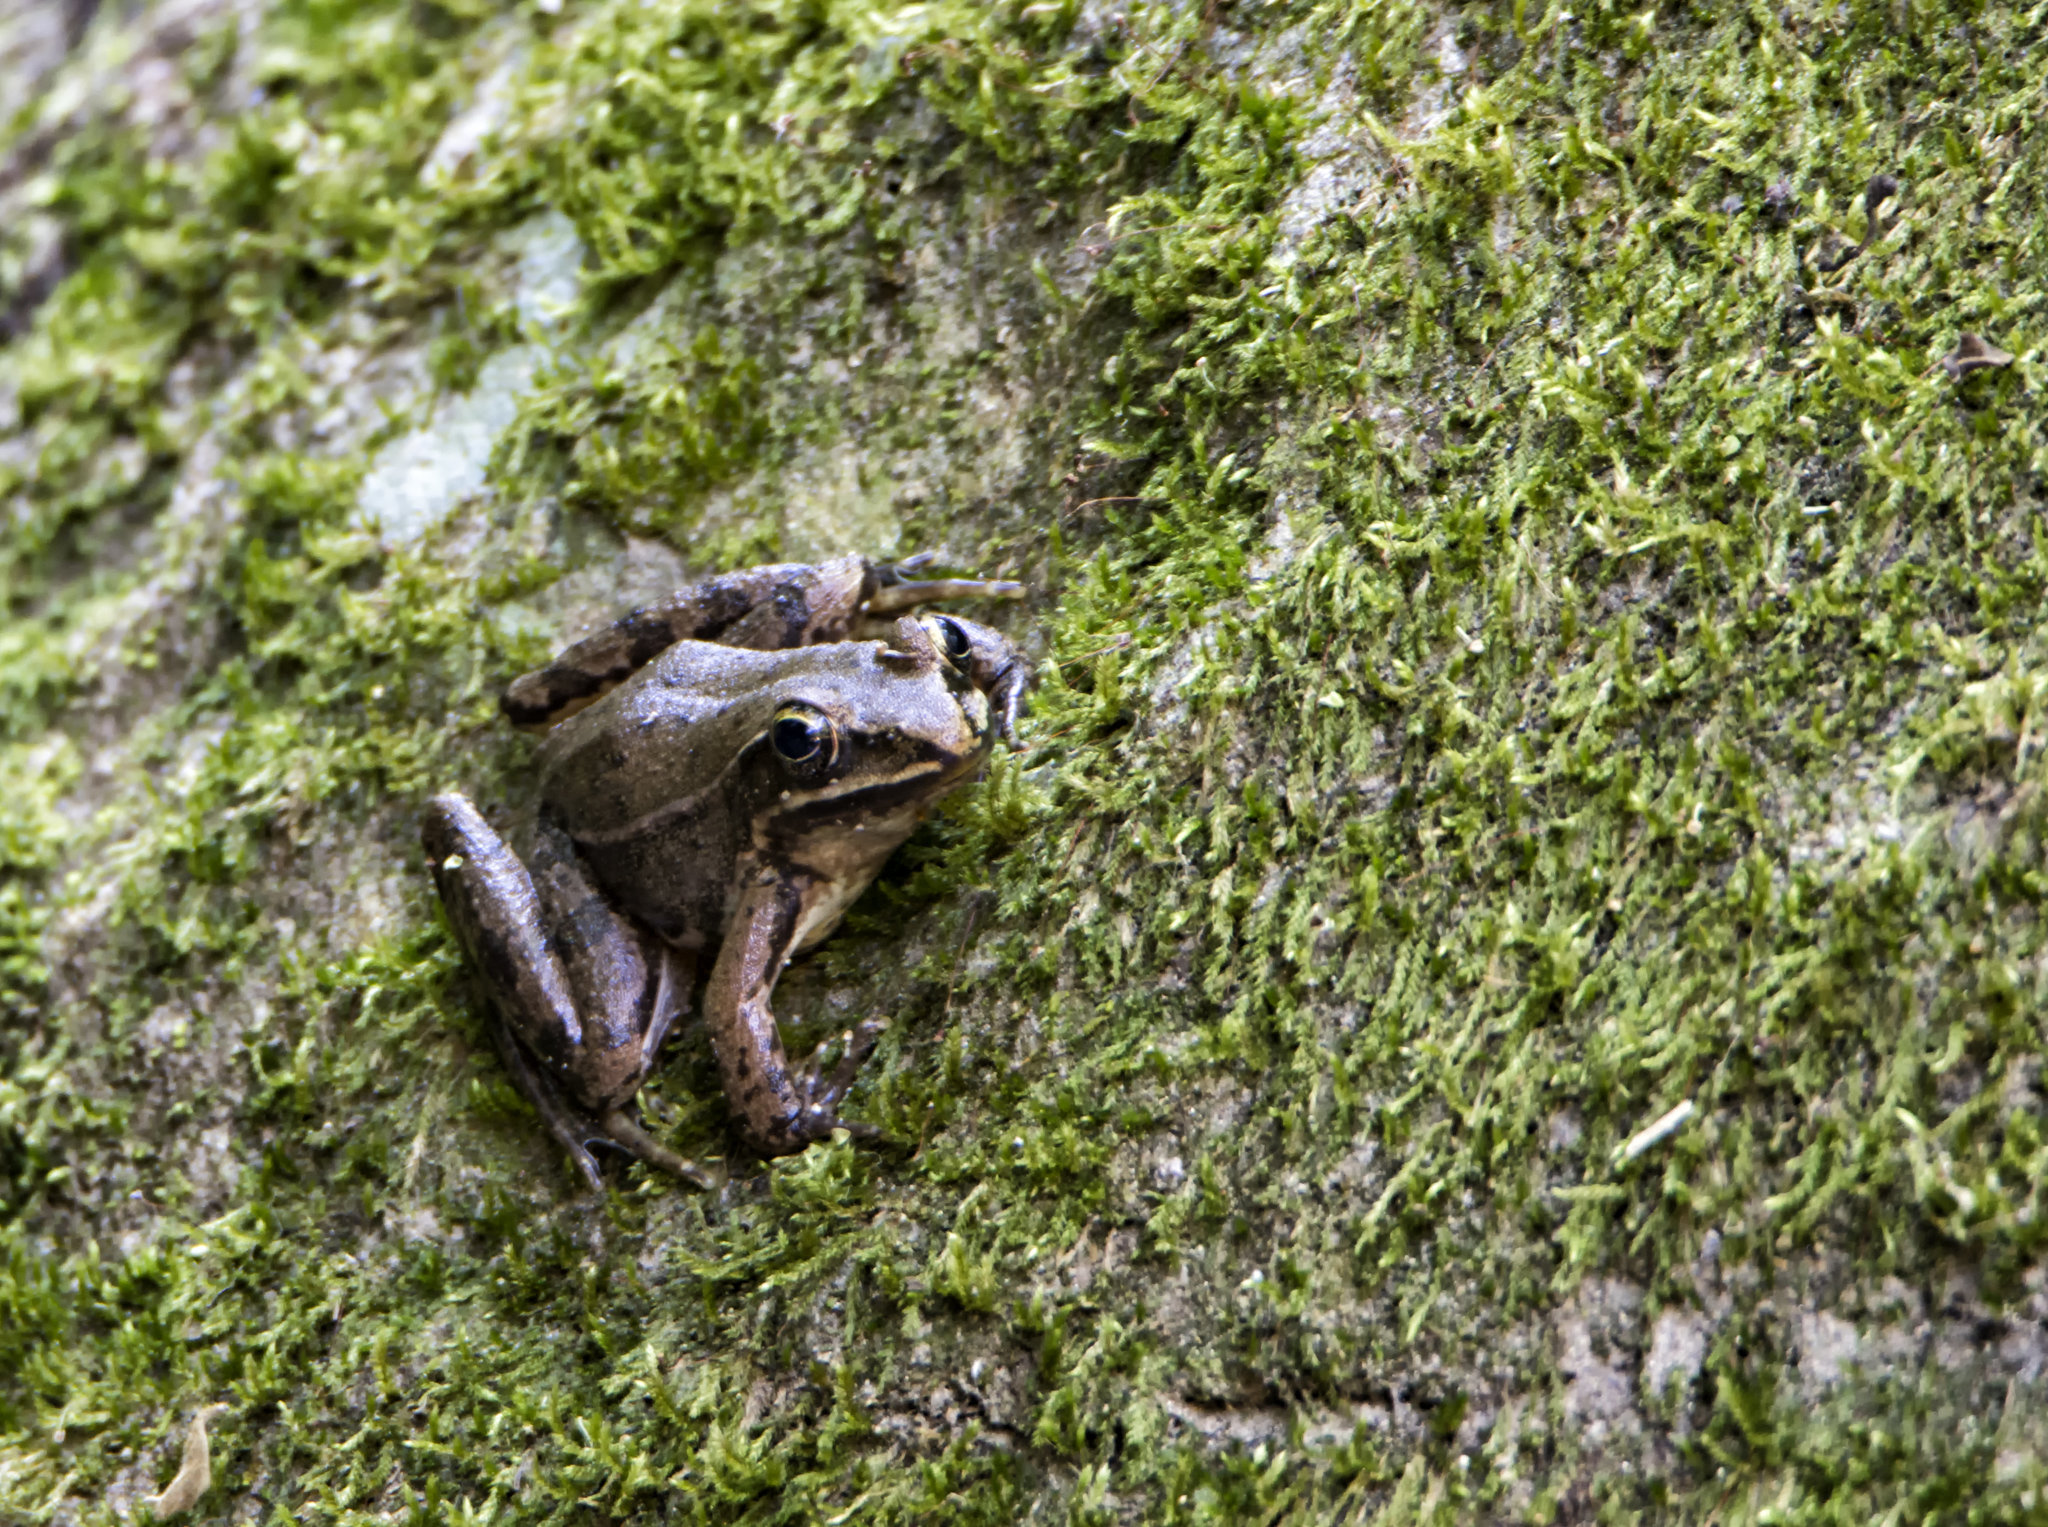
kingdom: Animalia
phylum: Chordata
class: Amphibia
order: Anura
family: Ranidae
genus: Lithobates
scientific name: Lithobates pustulosus
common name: Cascade frog
